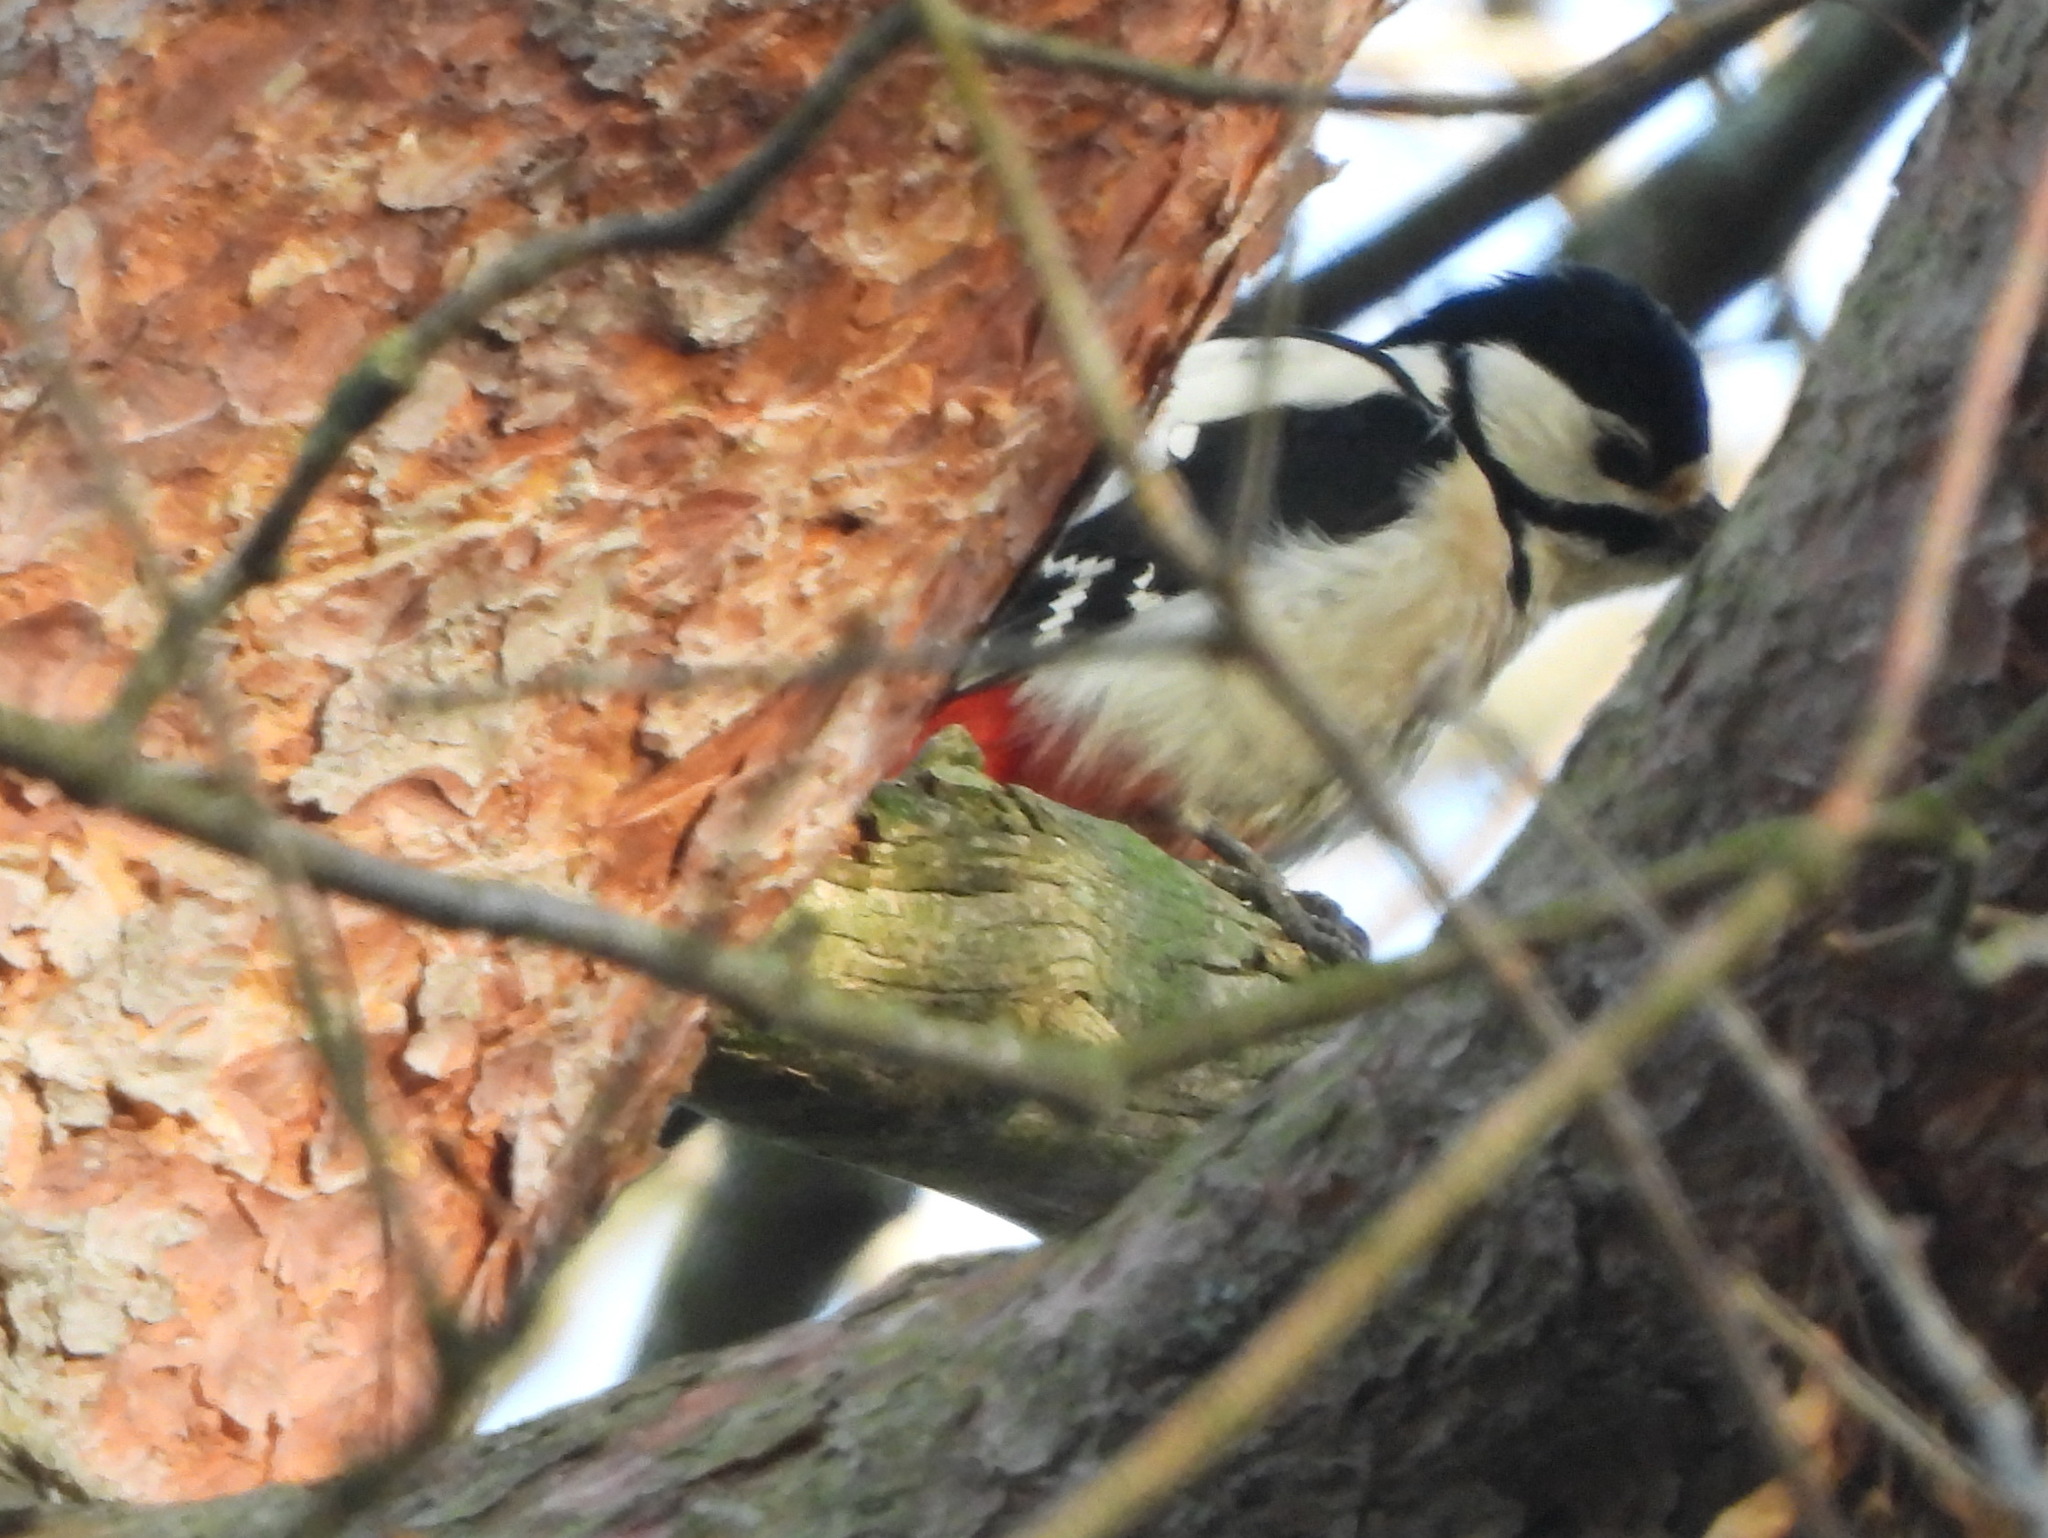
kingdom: Animalia
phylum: Chordata
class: Aves
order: Piciformes
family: Picidae
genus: Dendrocopos
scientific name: Dendrocopos major
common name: Great spotted woodpecker
